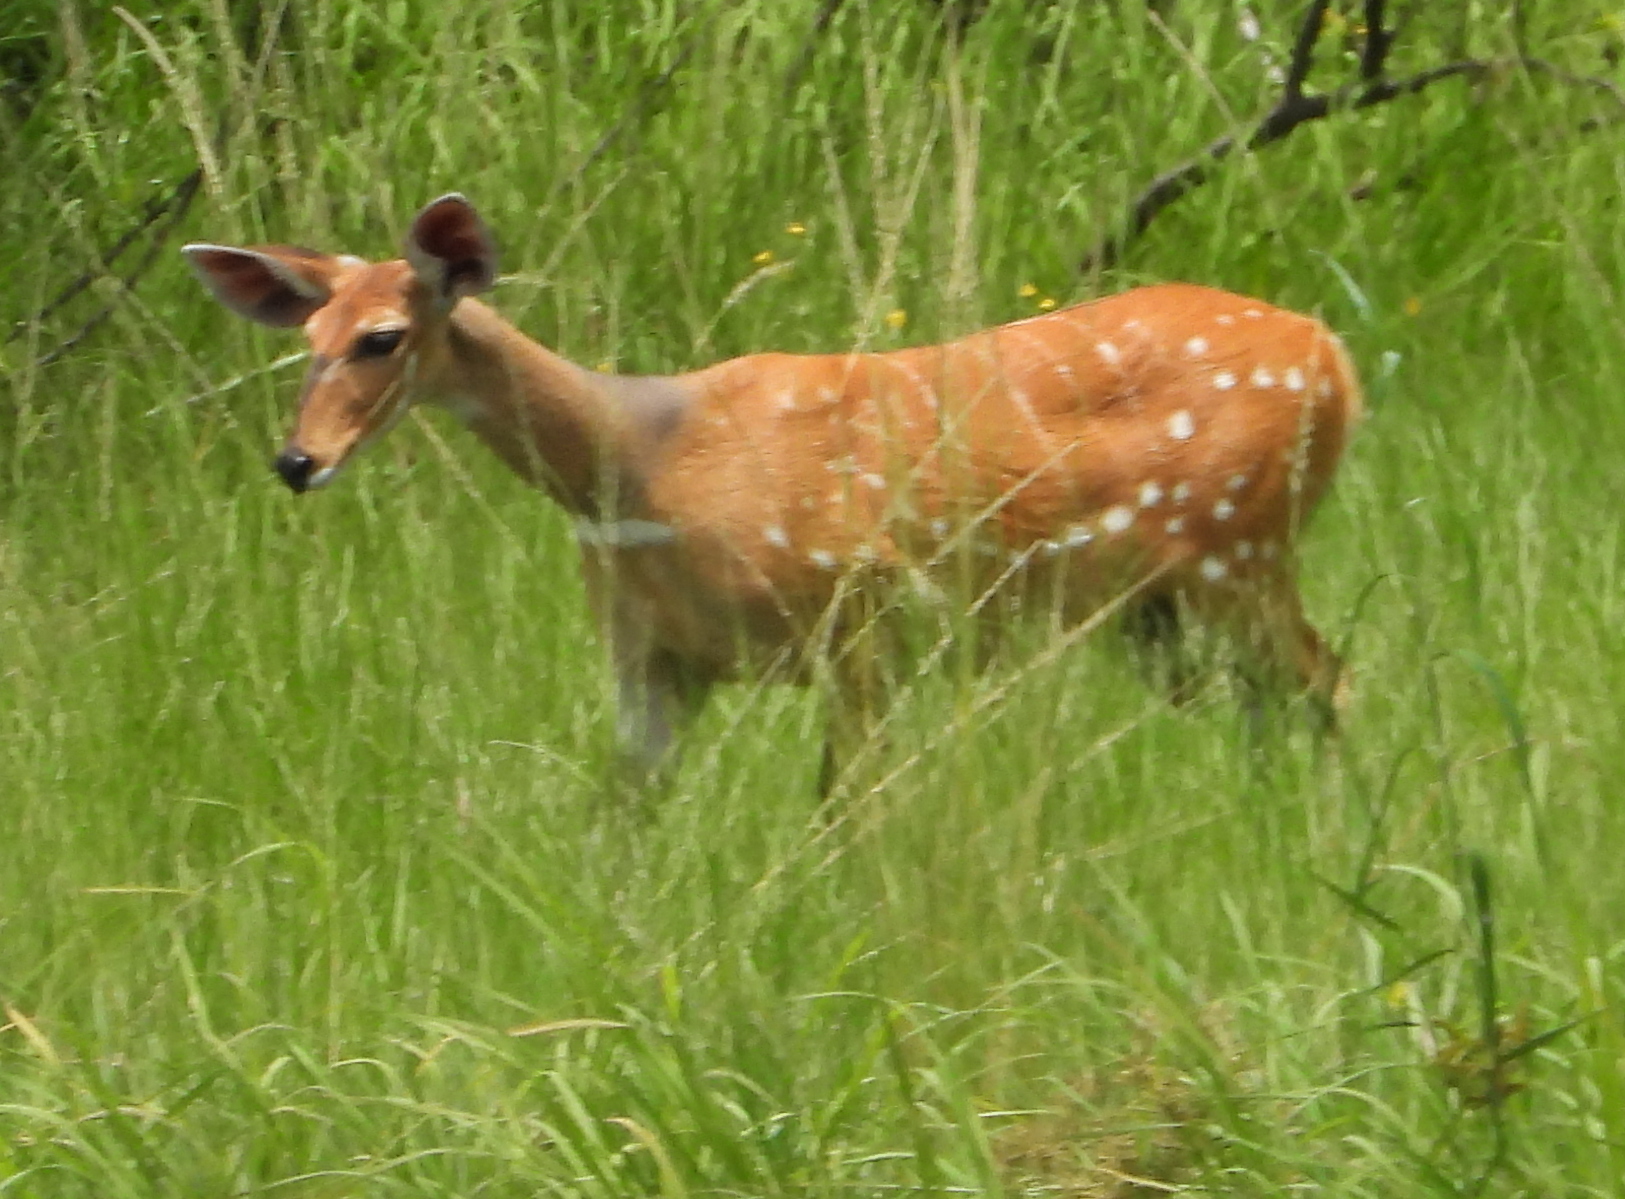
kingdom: Animalia
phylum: Chordata
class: Mammalia
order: Artiodactyla
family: Bovidae
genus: Tragelaphus
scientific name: Tragelaphus scriptus
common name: Bushbuck
